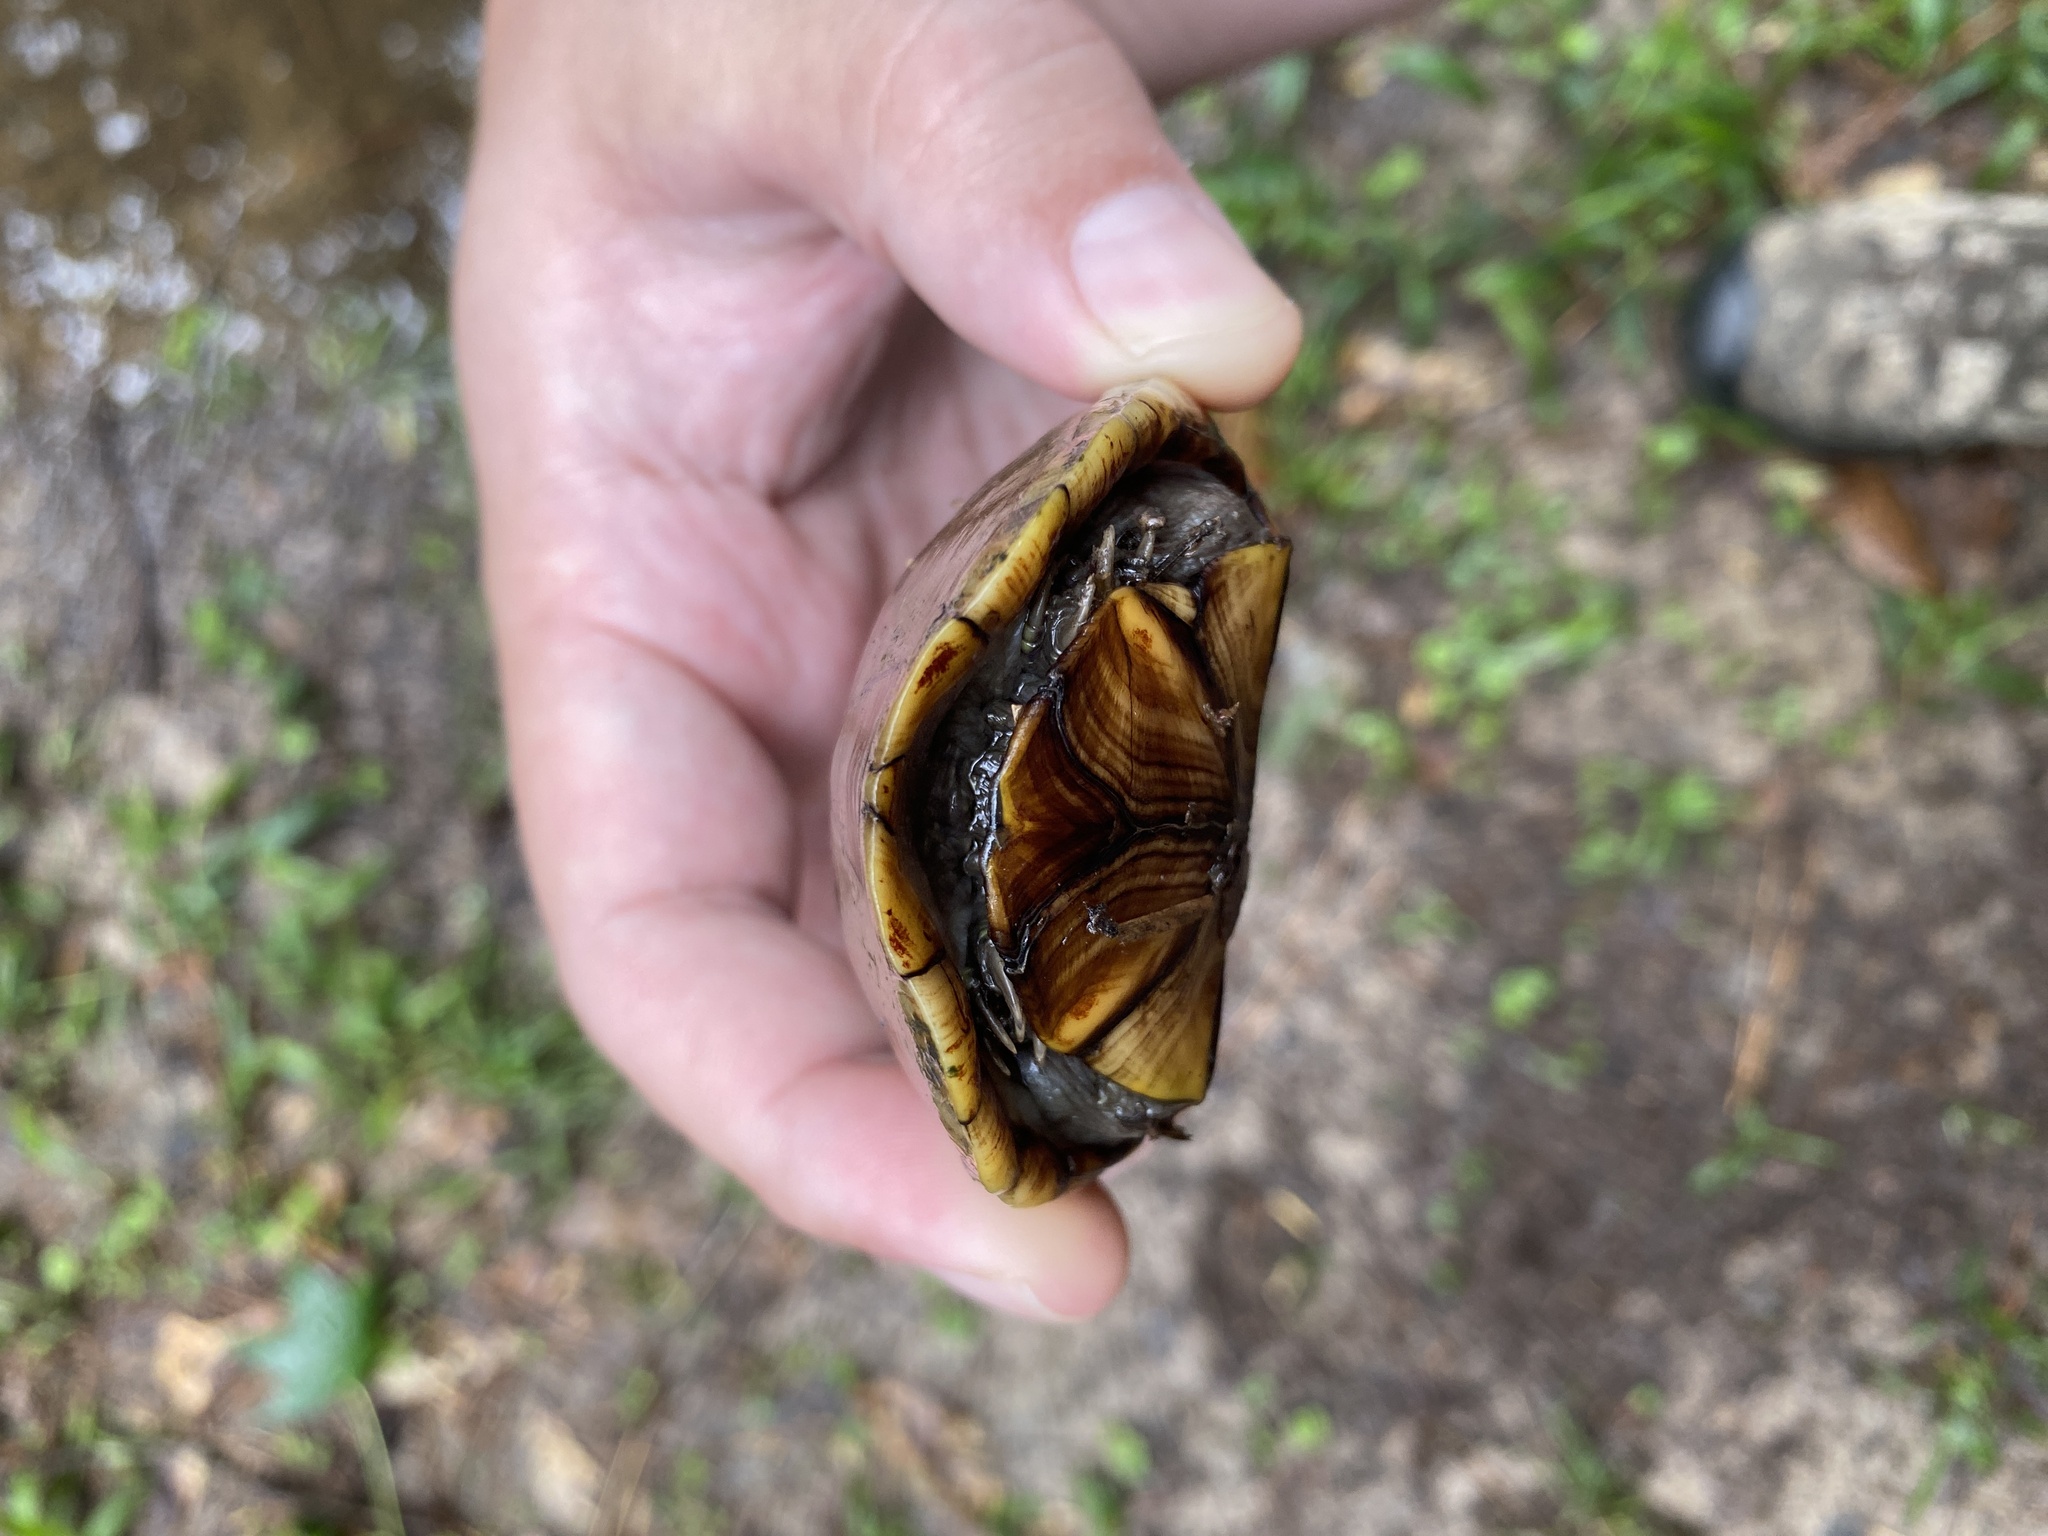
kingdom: Animalia
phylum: Chordata
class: Testudines
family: Kinosternidae
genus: Kinosternon
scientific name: Kinosternon subrubrum
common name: Eastern mud turtle
